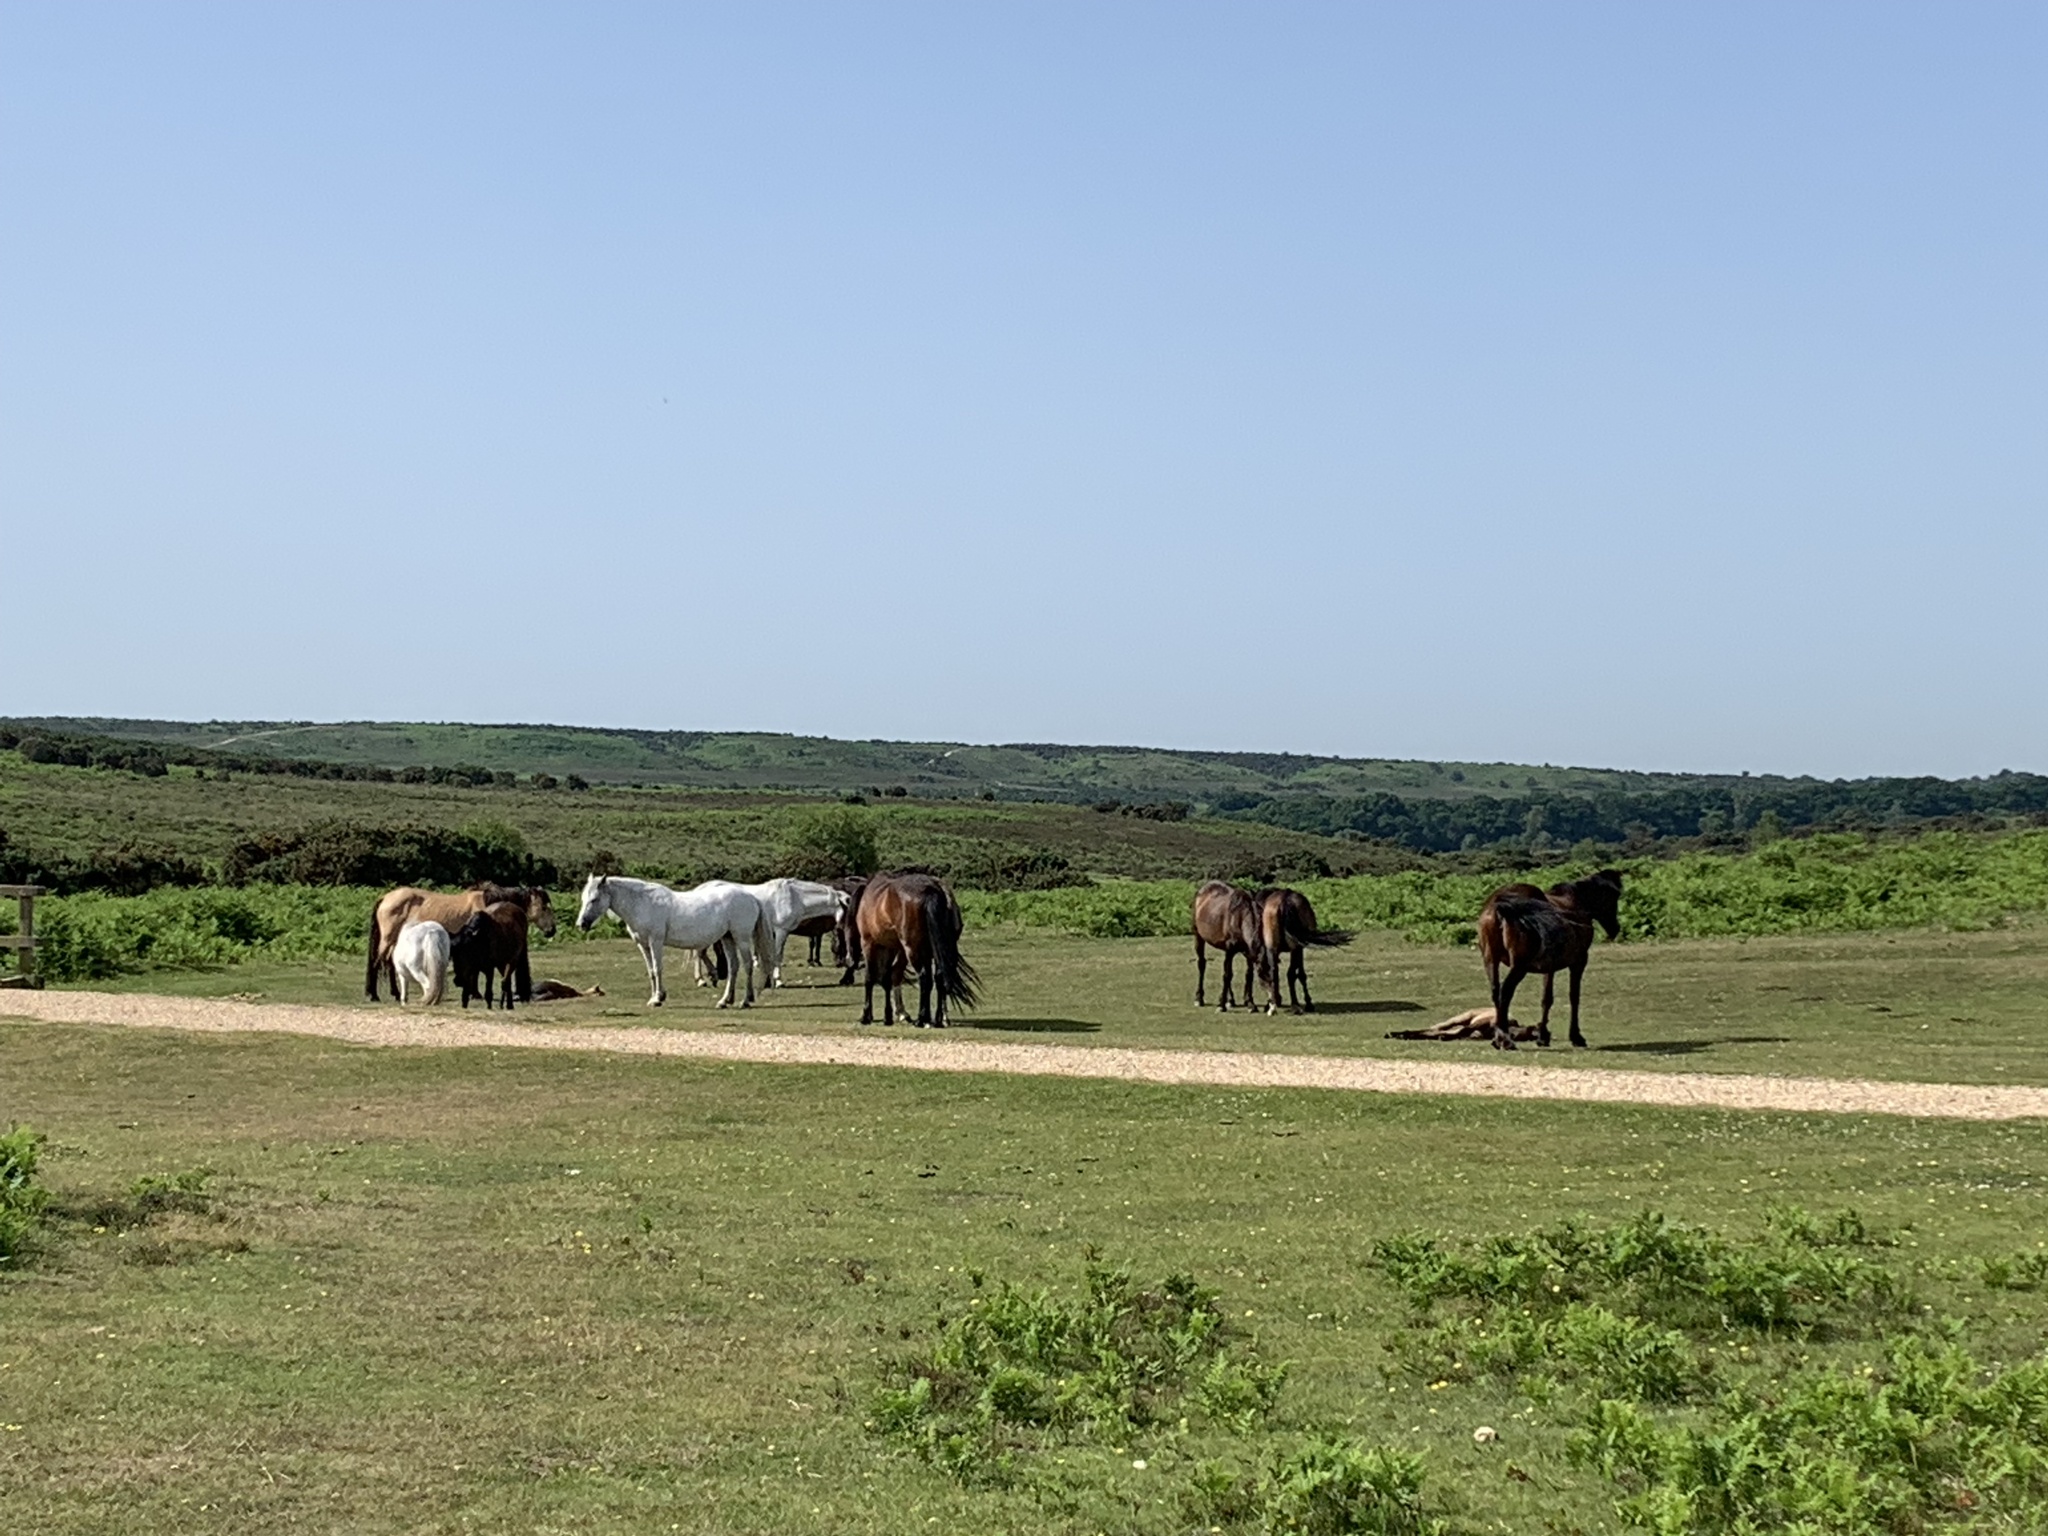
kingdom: Animalia
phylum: Chordata
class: Mammalia
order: Perissodactyla
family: Equidae
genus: Equus
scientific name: Equus caballus
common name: Horse
